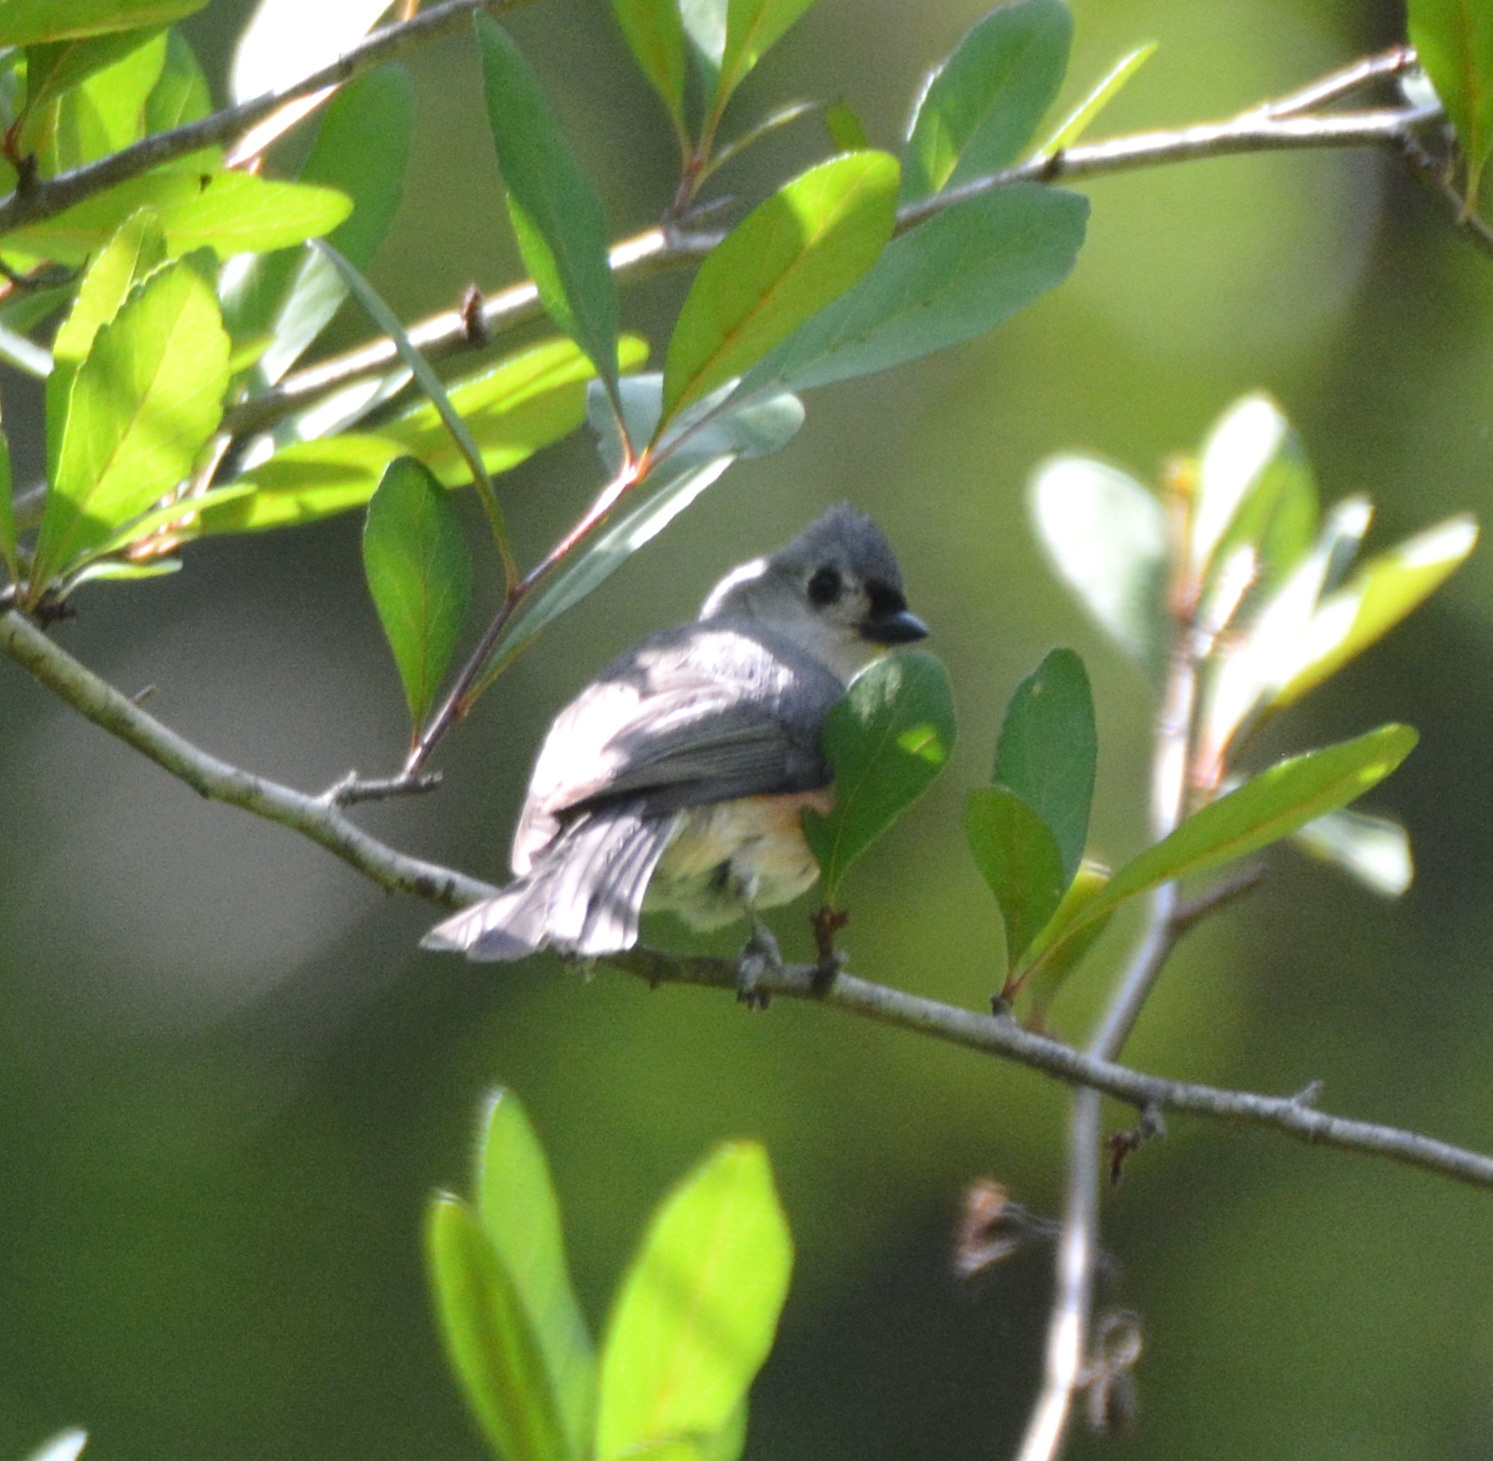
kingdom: Animalia
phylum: Chordata
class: Aves
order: Passeriformes
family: Paridae
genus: Baeolophus
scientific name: Baeolophus bicolor
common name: Tufted titmouse
